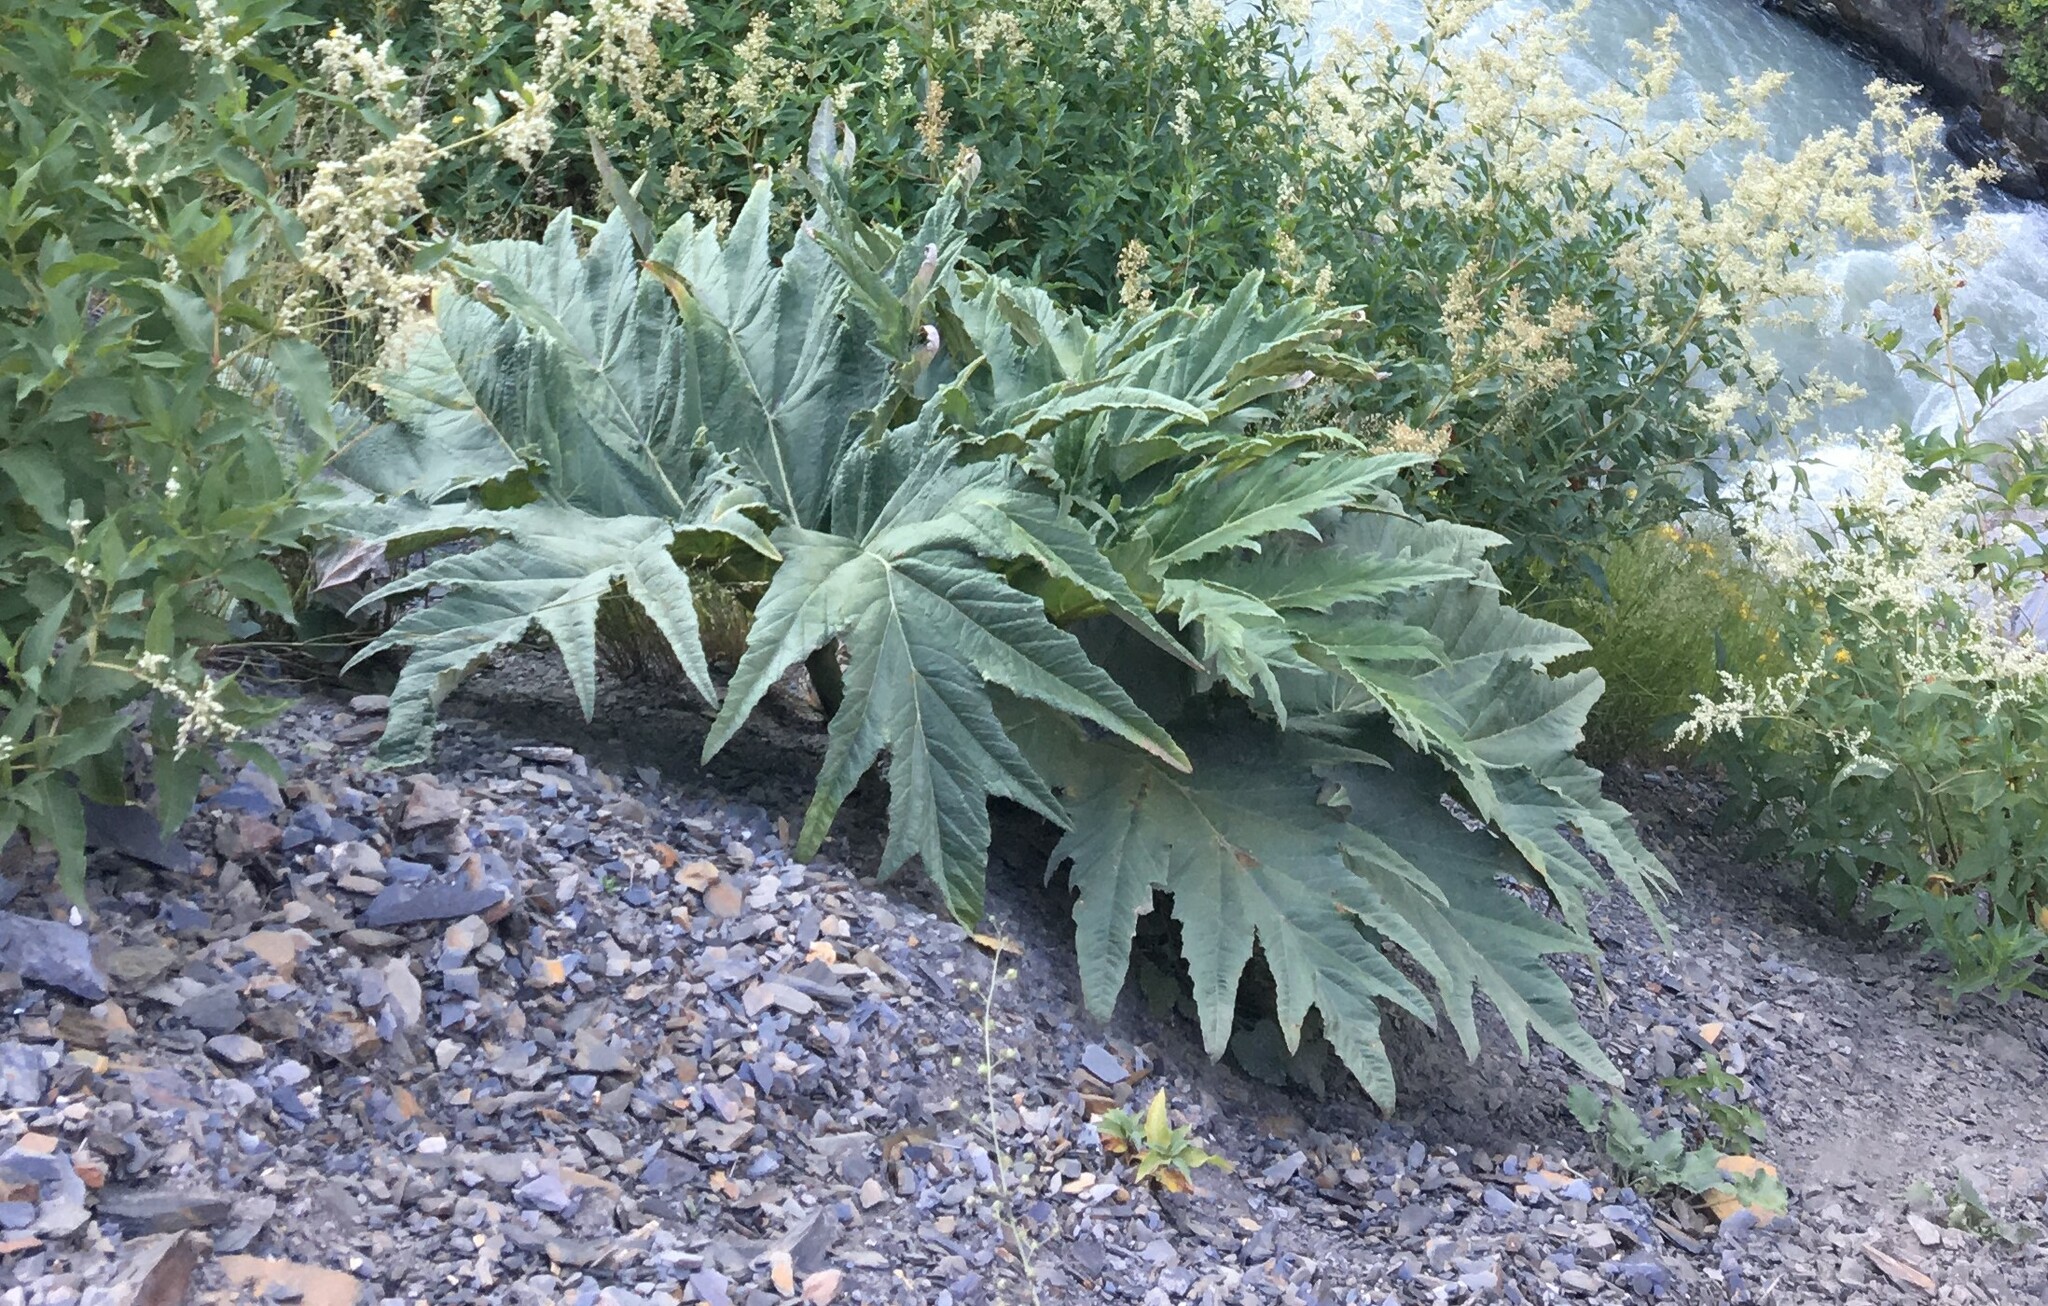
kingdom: Plantae
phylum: Tracheophyta
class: Magnoliopsida
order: Apiales
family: Apiaceae
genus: Heracleum
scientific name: Heracleum
